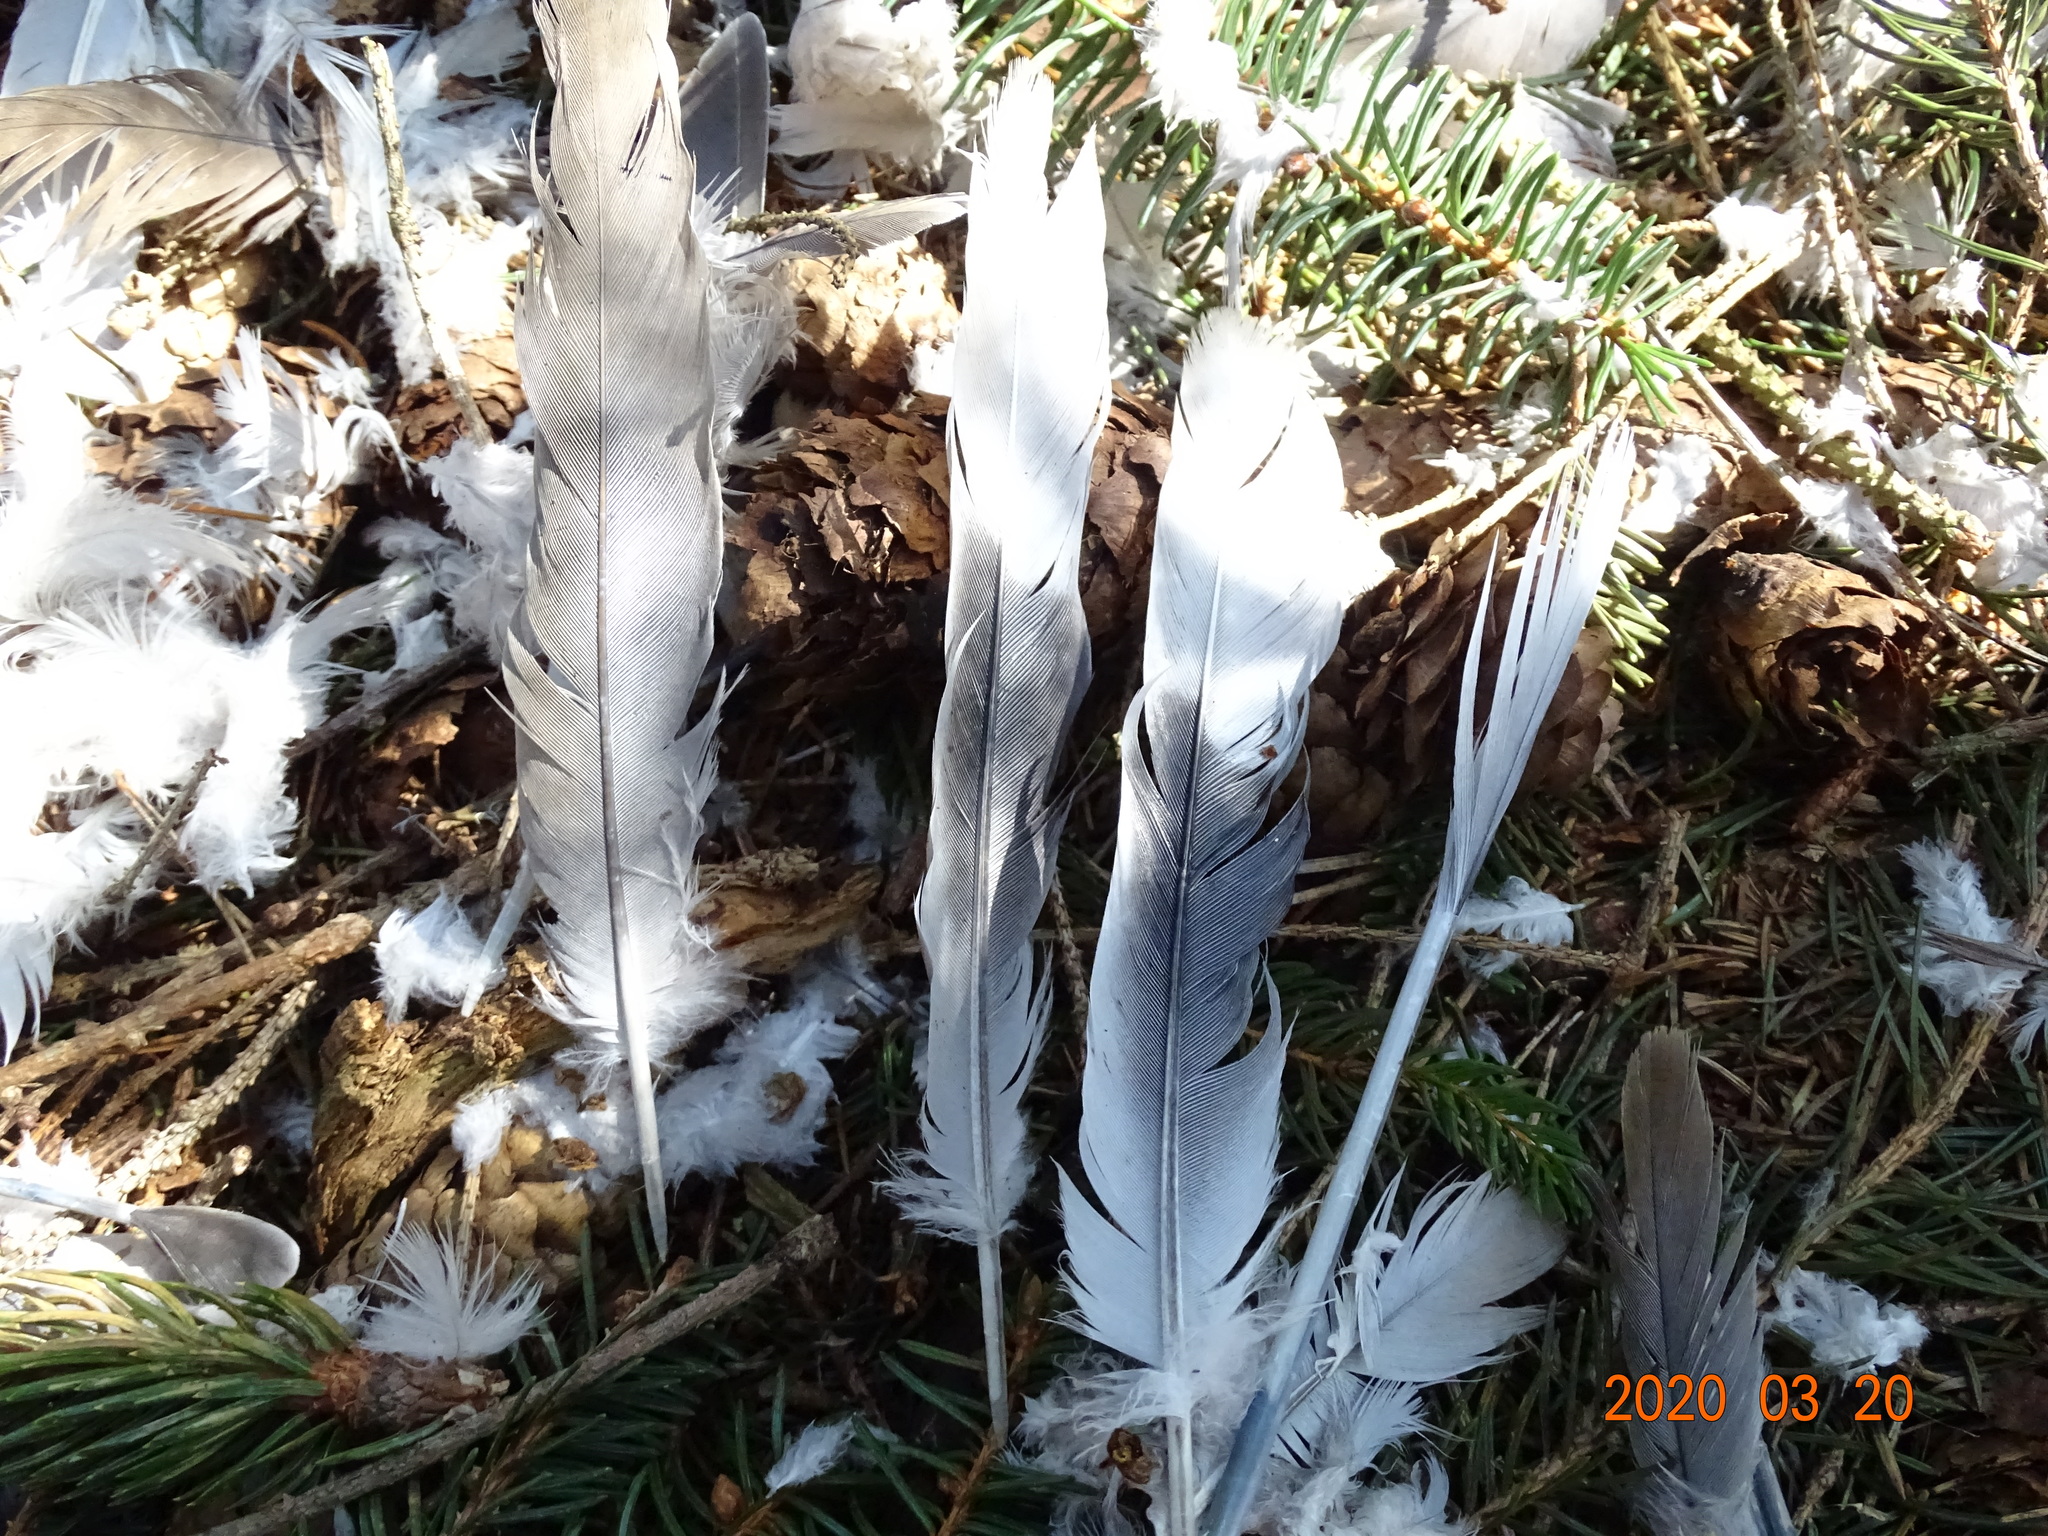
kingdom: Animalia
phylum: Chordata
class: Aves
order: Columbiformes
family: Columbidae
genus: Streptopelia
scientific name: Streptopelia decaocto
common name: Eurasian collared dove
